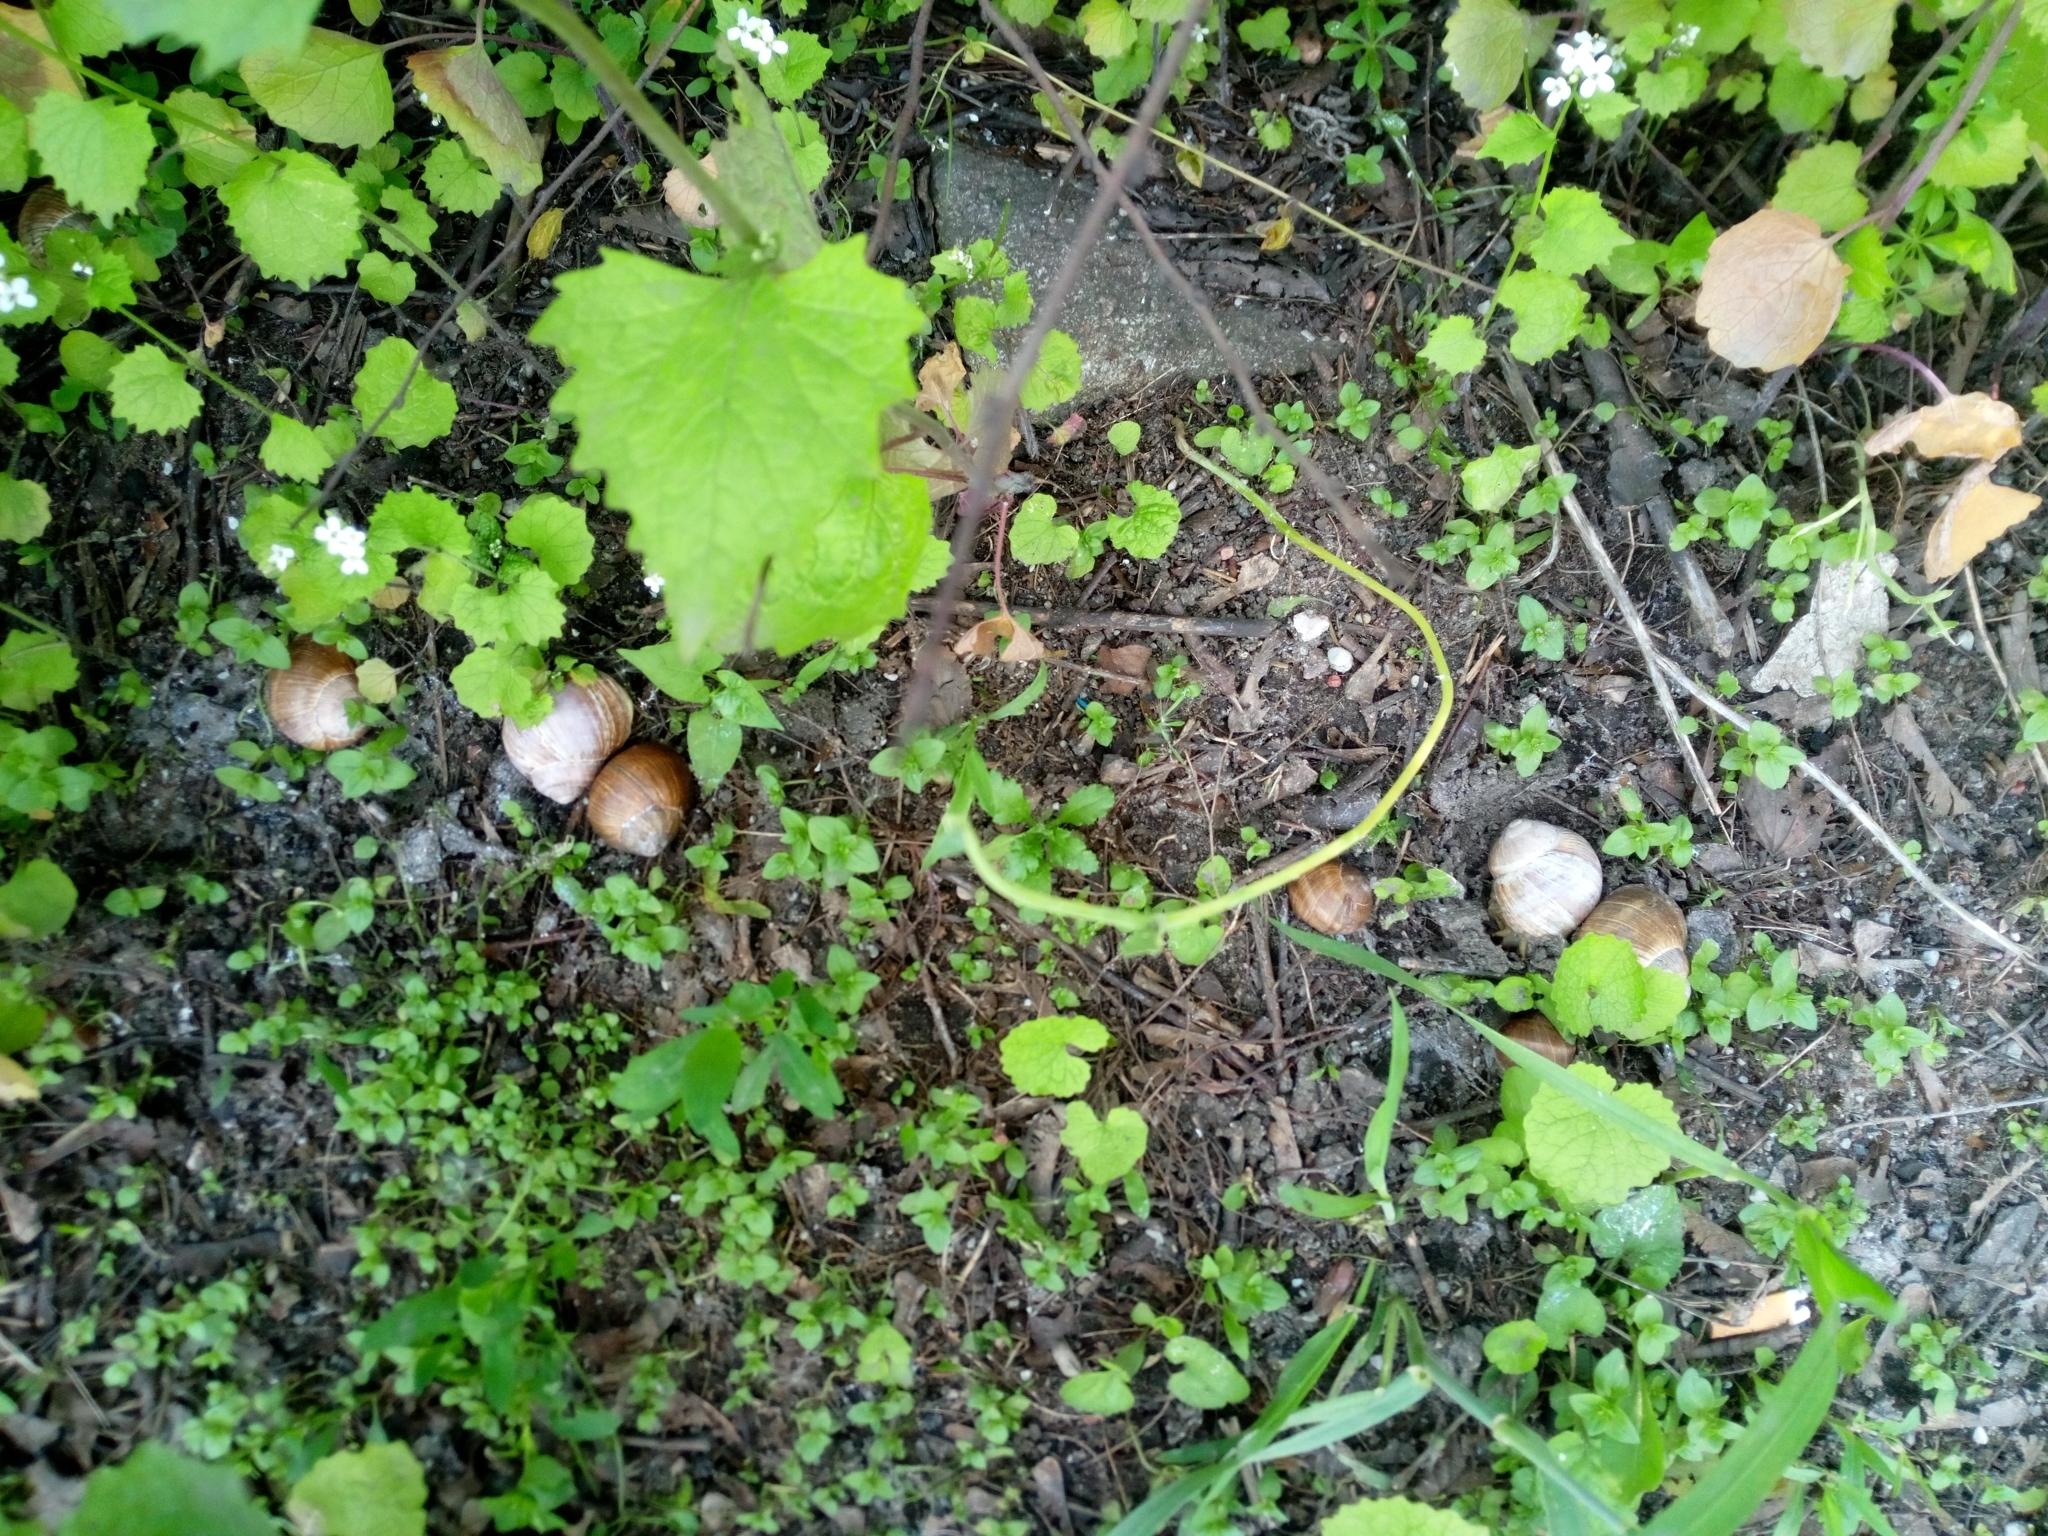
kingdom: Animalia
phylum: Mollusca
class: Gastropoda
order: Stylommatophora
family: Helicidae
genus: Helix
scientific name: Helix pomatia
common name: Roman snail
